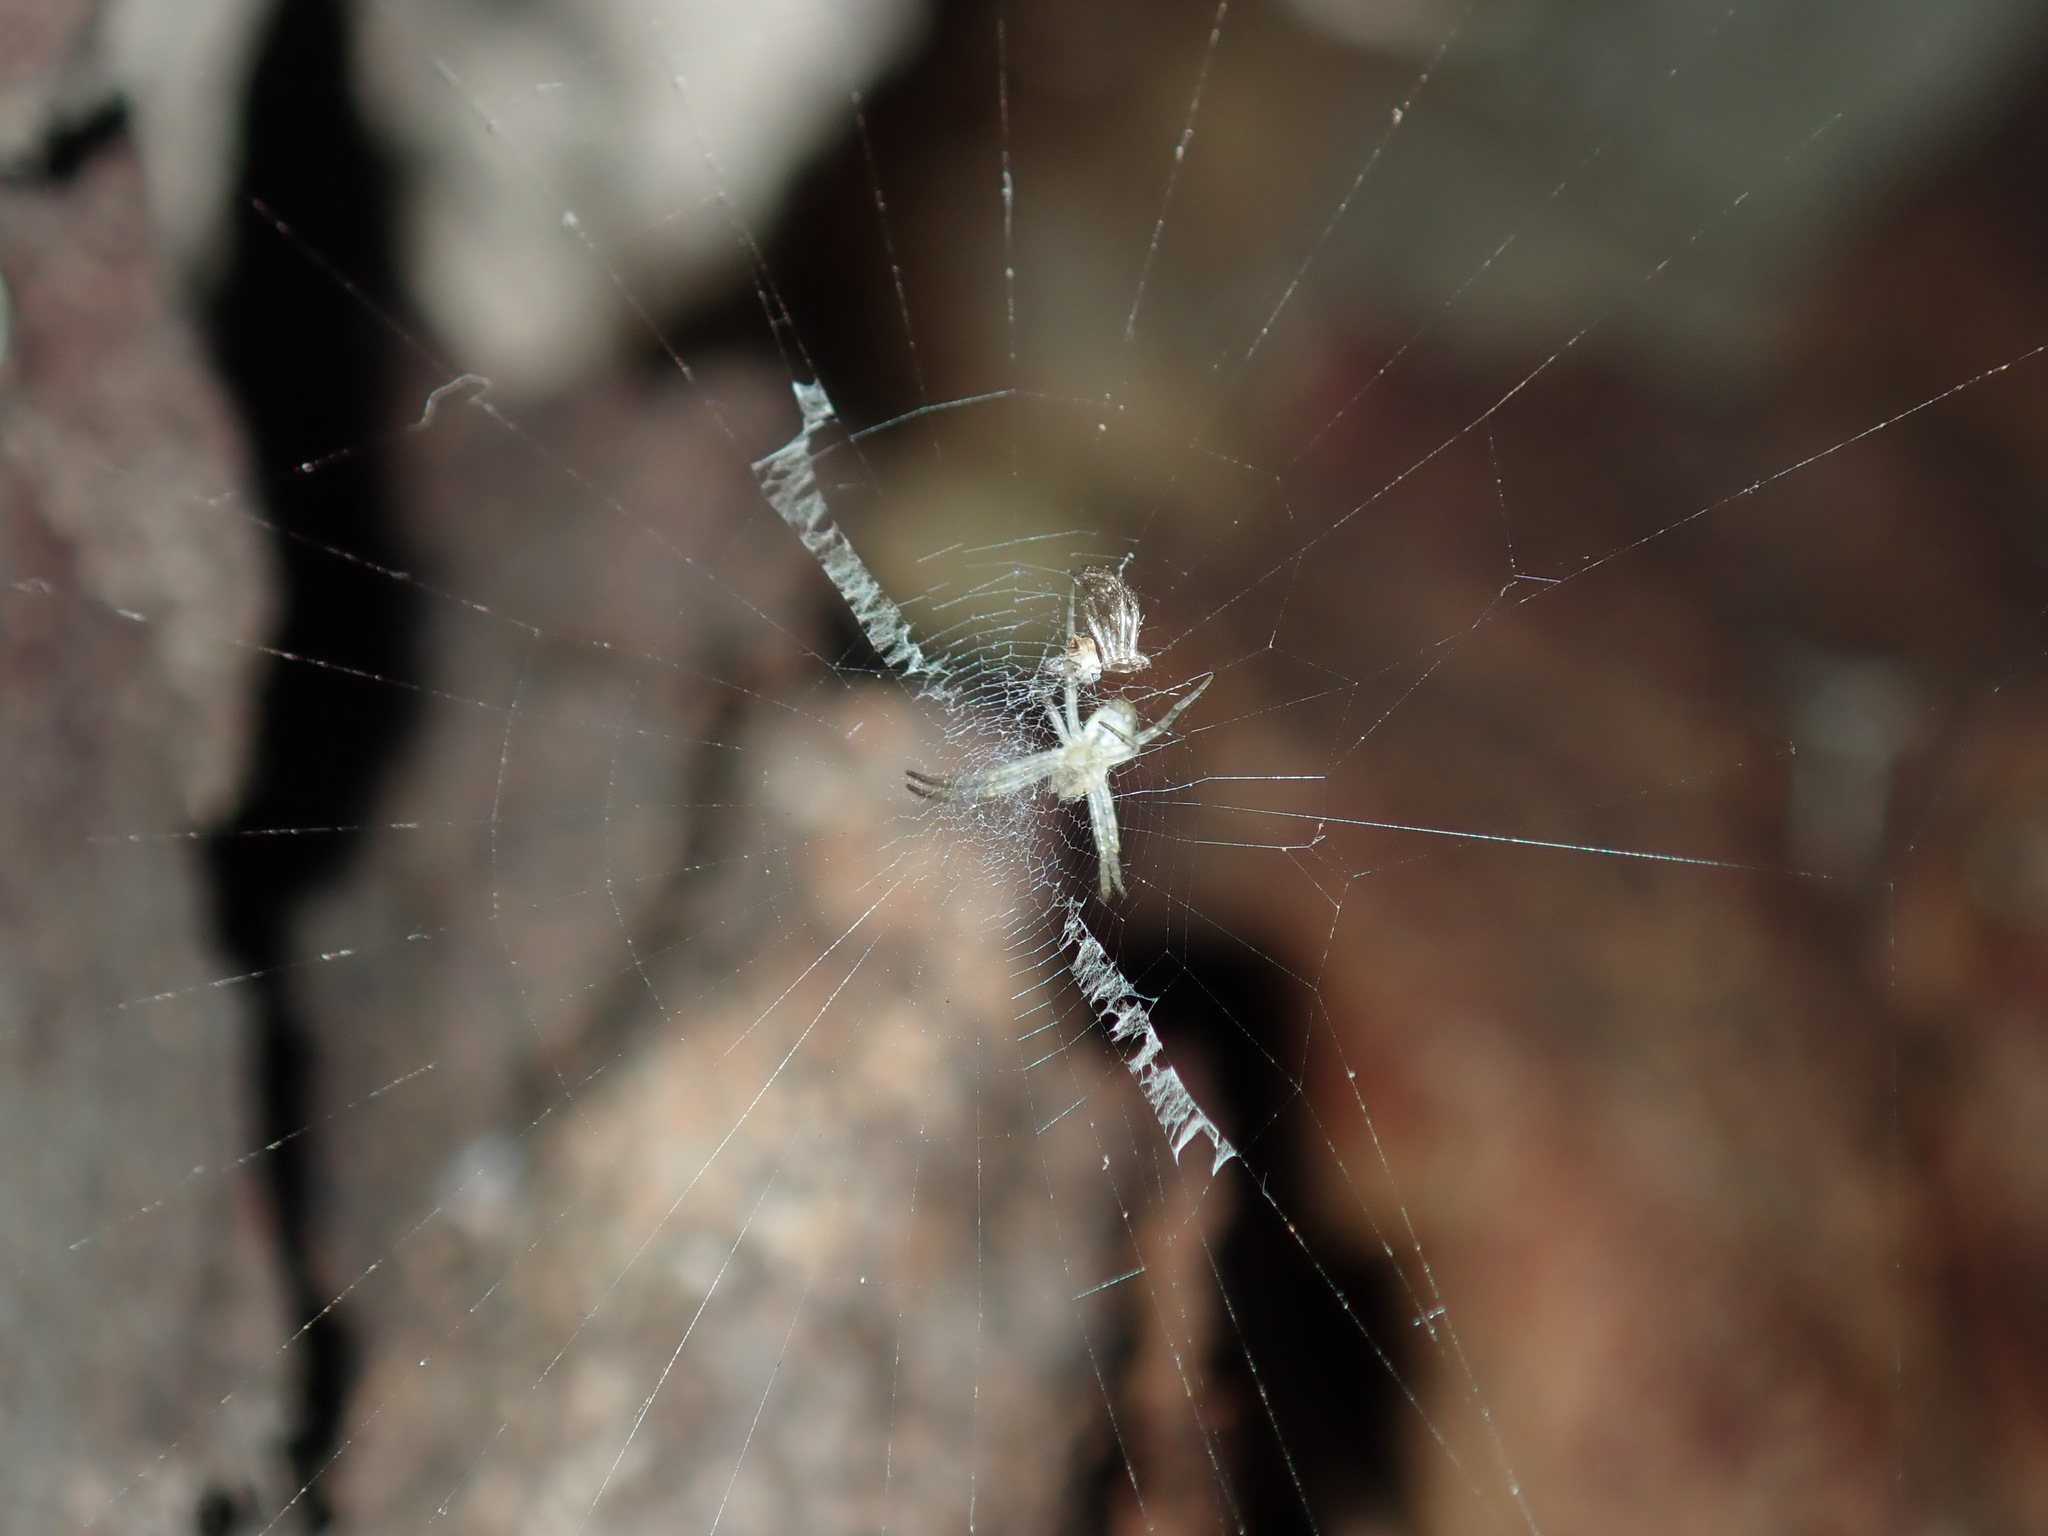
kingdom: Animalia
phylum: Arthropoda
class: Arachnida
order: Araneae
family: Araneidae
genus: Argiope
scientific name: Argiope keyserlingi
